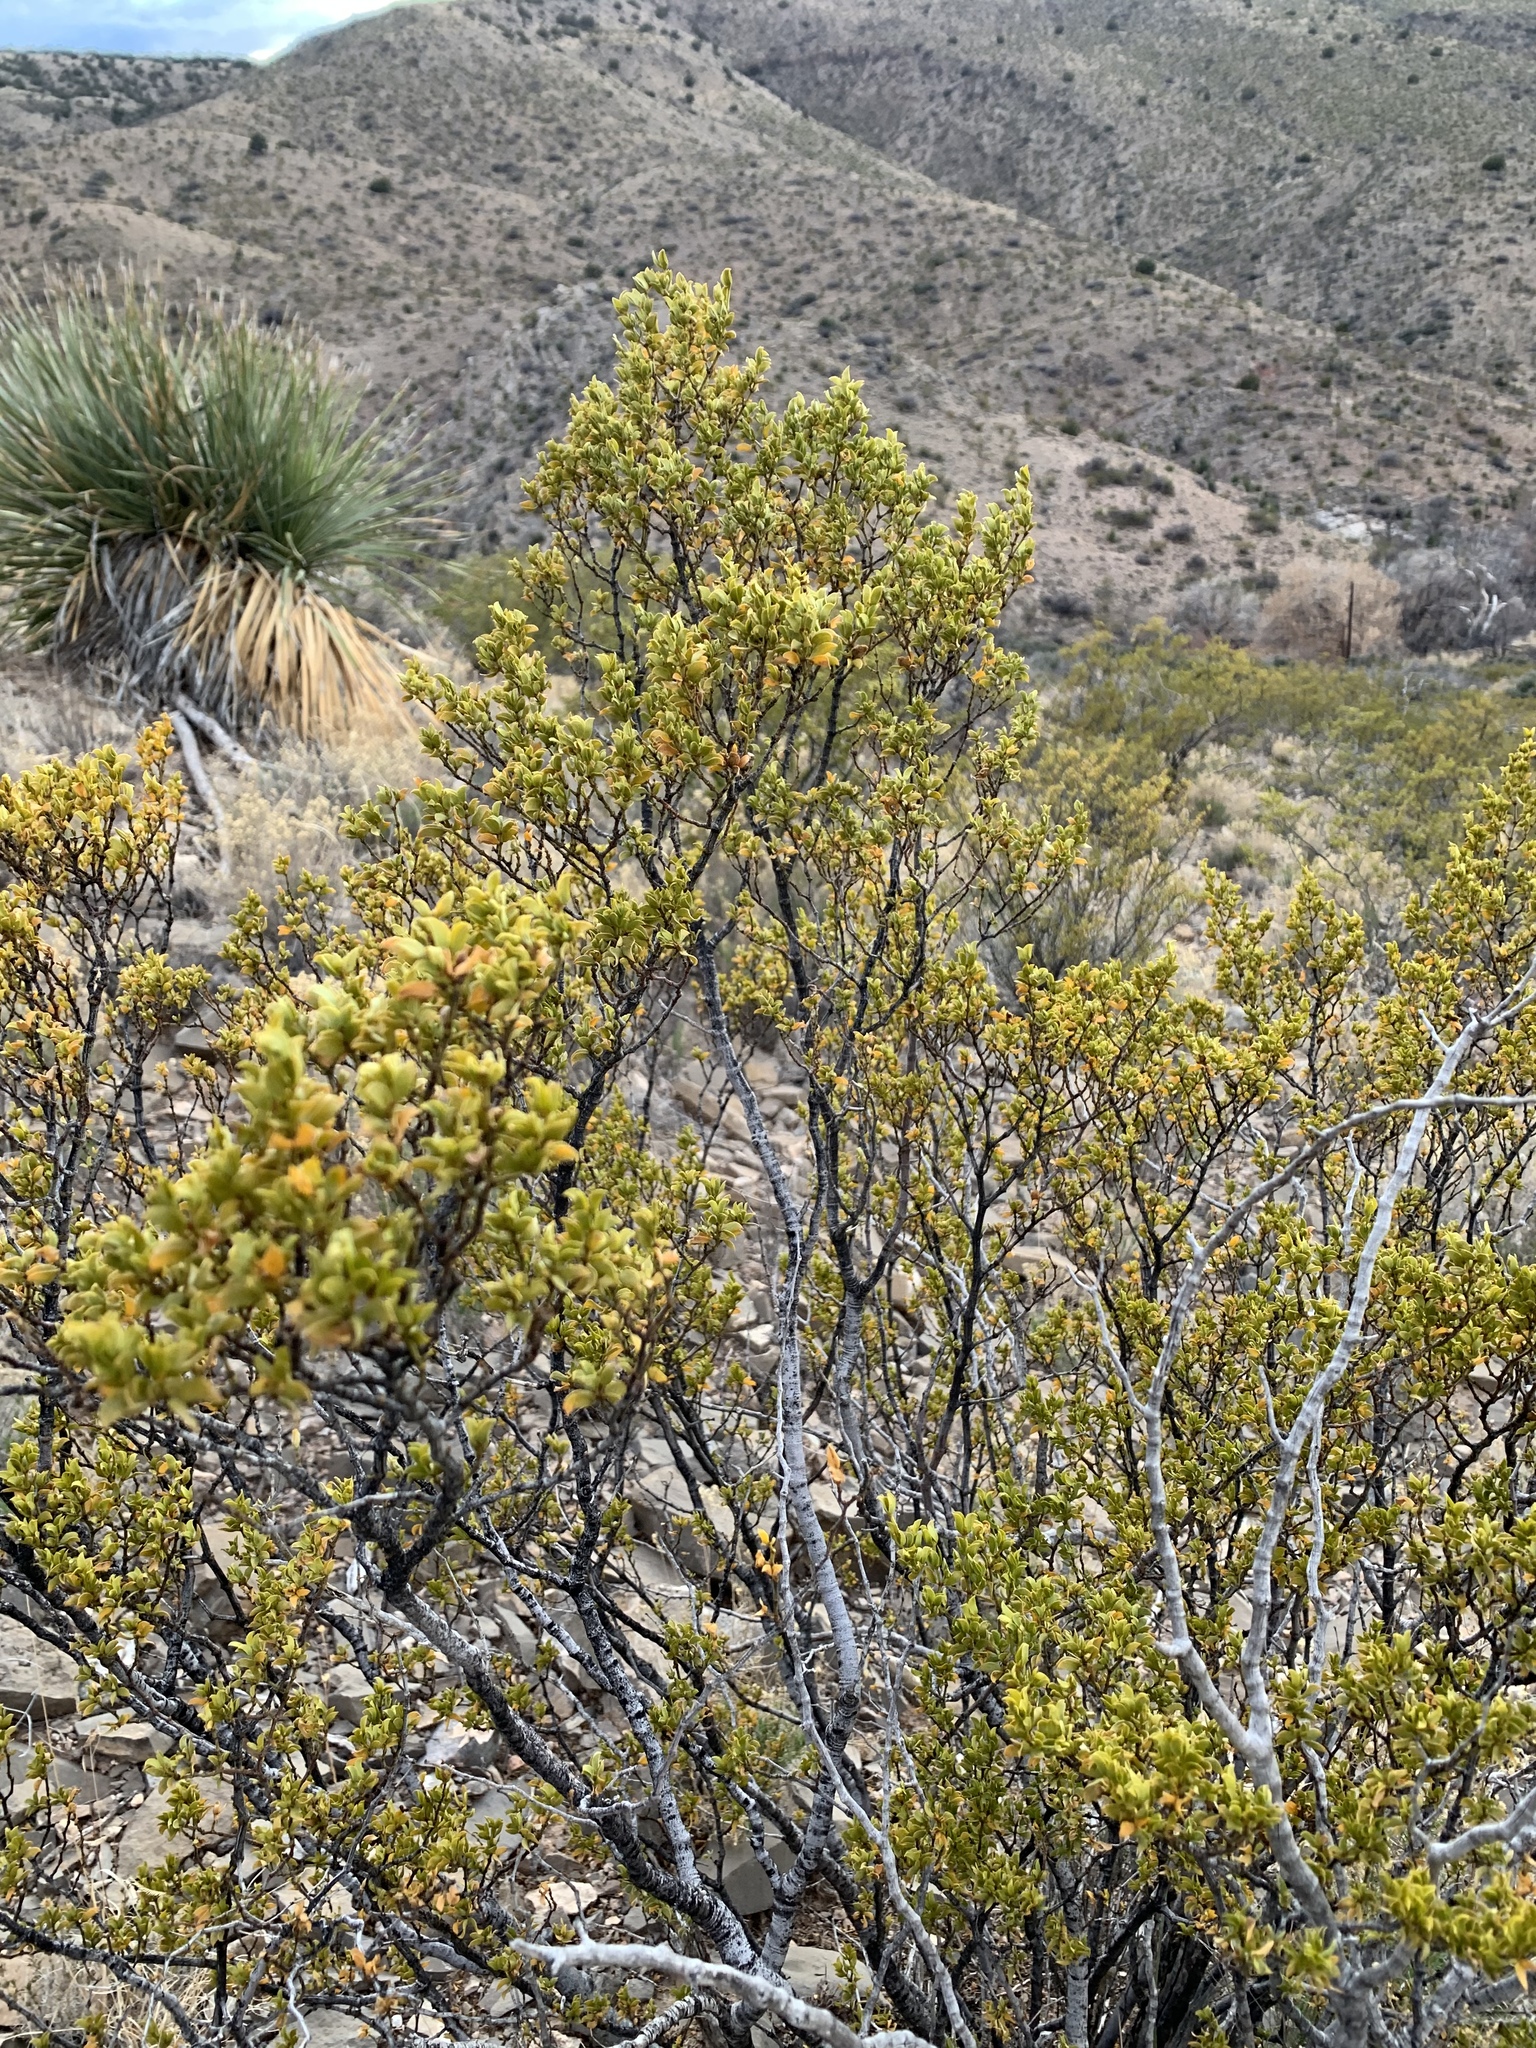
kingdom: Plantae
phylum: Tracheophyta
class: Magnoliopsida
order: Zygophyllales
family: Zygophyllaceae
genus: Larrea
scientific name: Larrea tridentata
